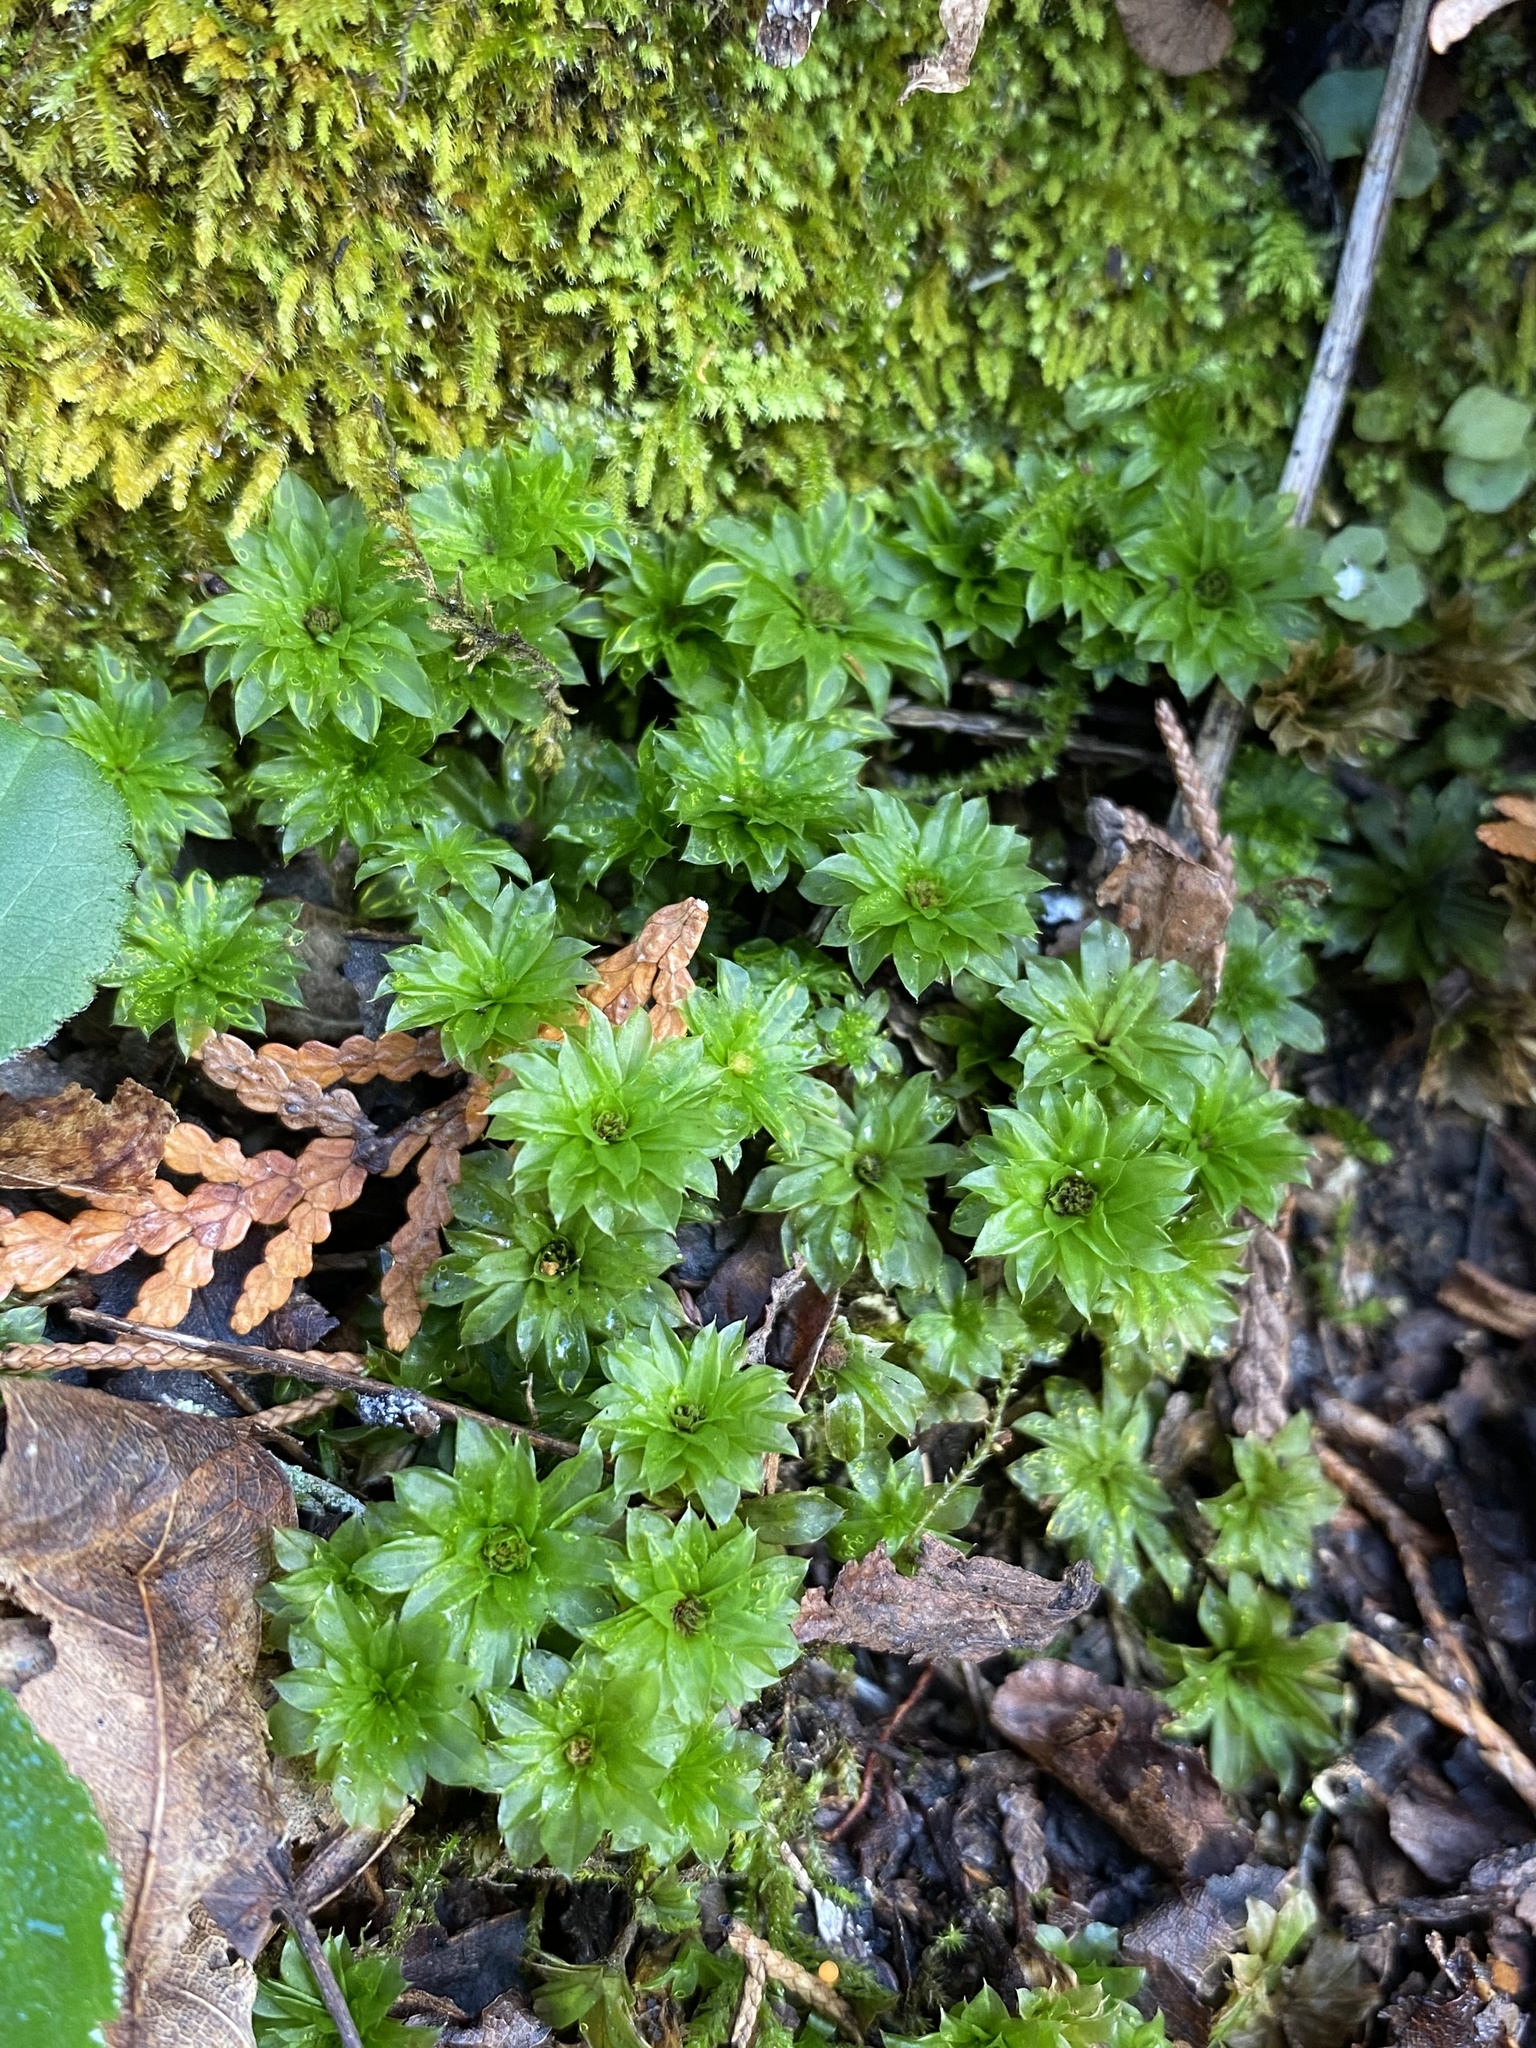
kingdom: Plantae
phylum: Bryophyta
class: Bryopsida
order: Bryales
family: Bryaceae
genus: Rhodobryum
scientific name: Rhodobryum ontariense
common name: Ontario rhodobryum moss
